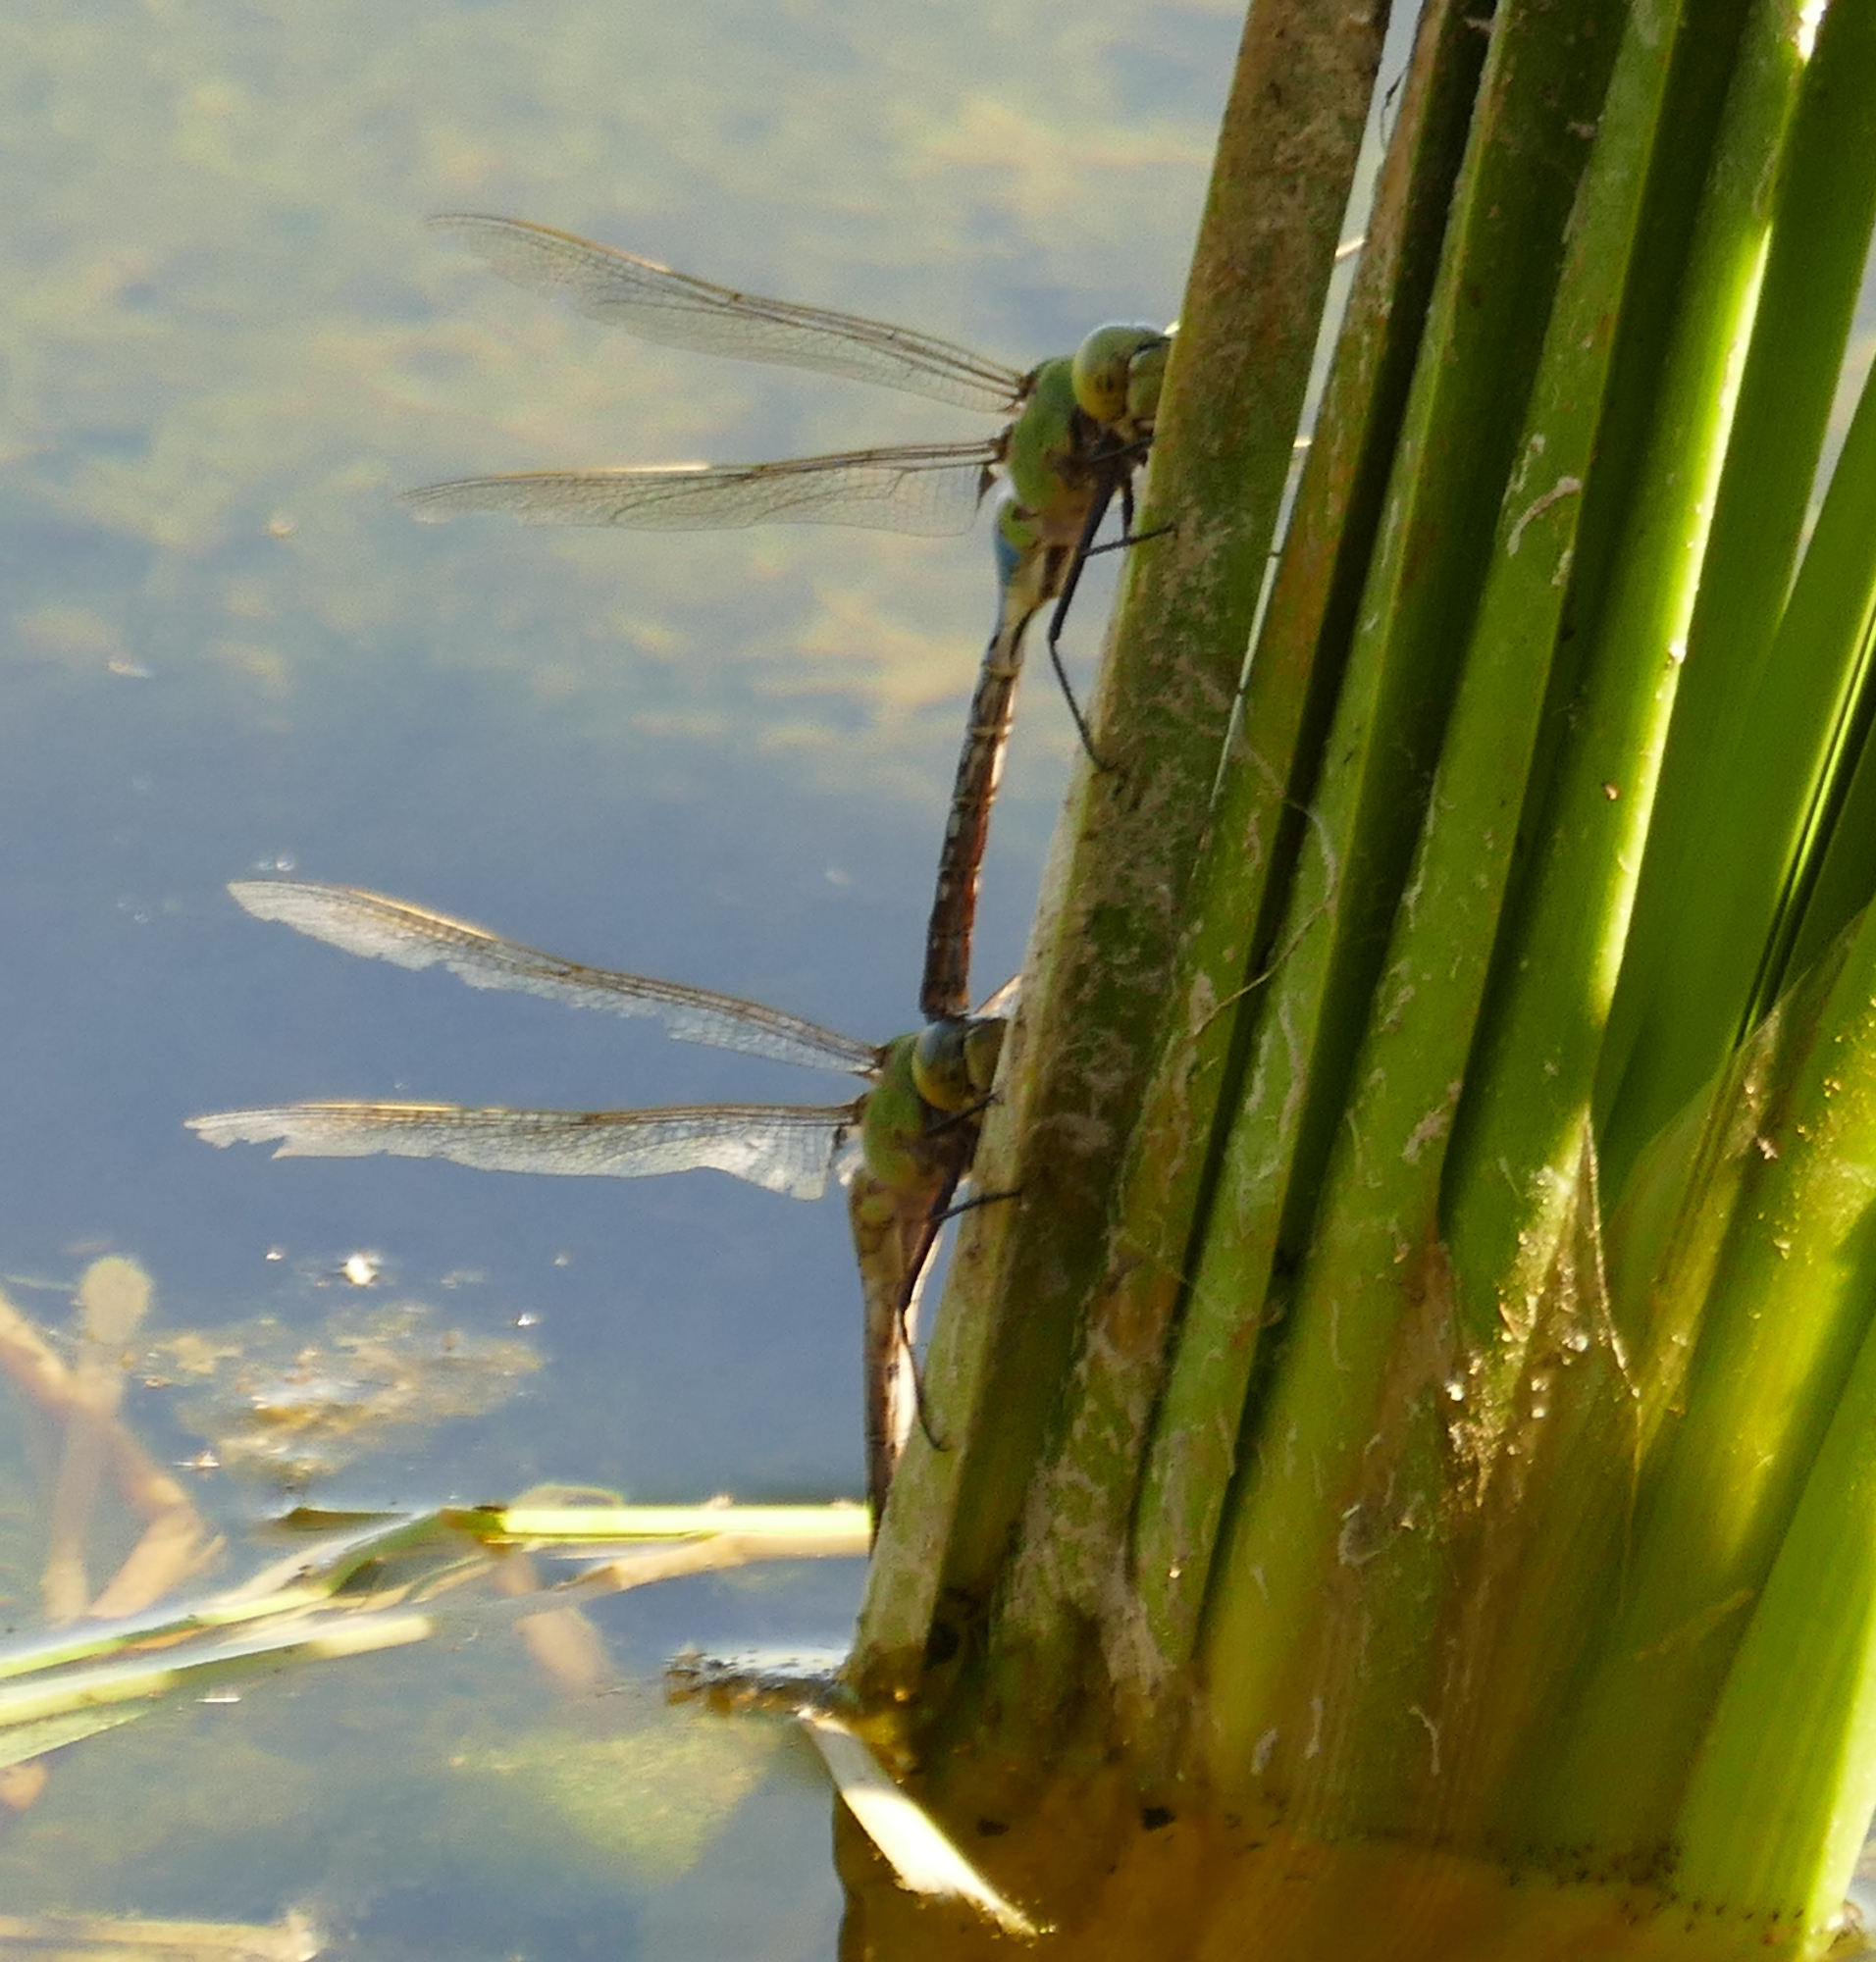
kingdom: Animalia
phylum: Arthropoda
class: Insecta
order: Odonata
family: Aeshnidae
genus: Anax
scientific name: Anax junius
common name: Common green darner
